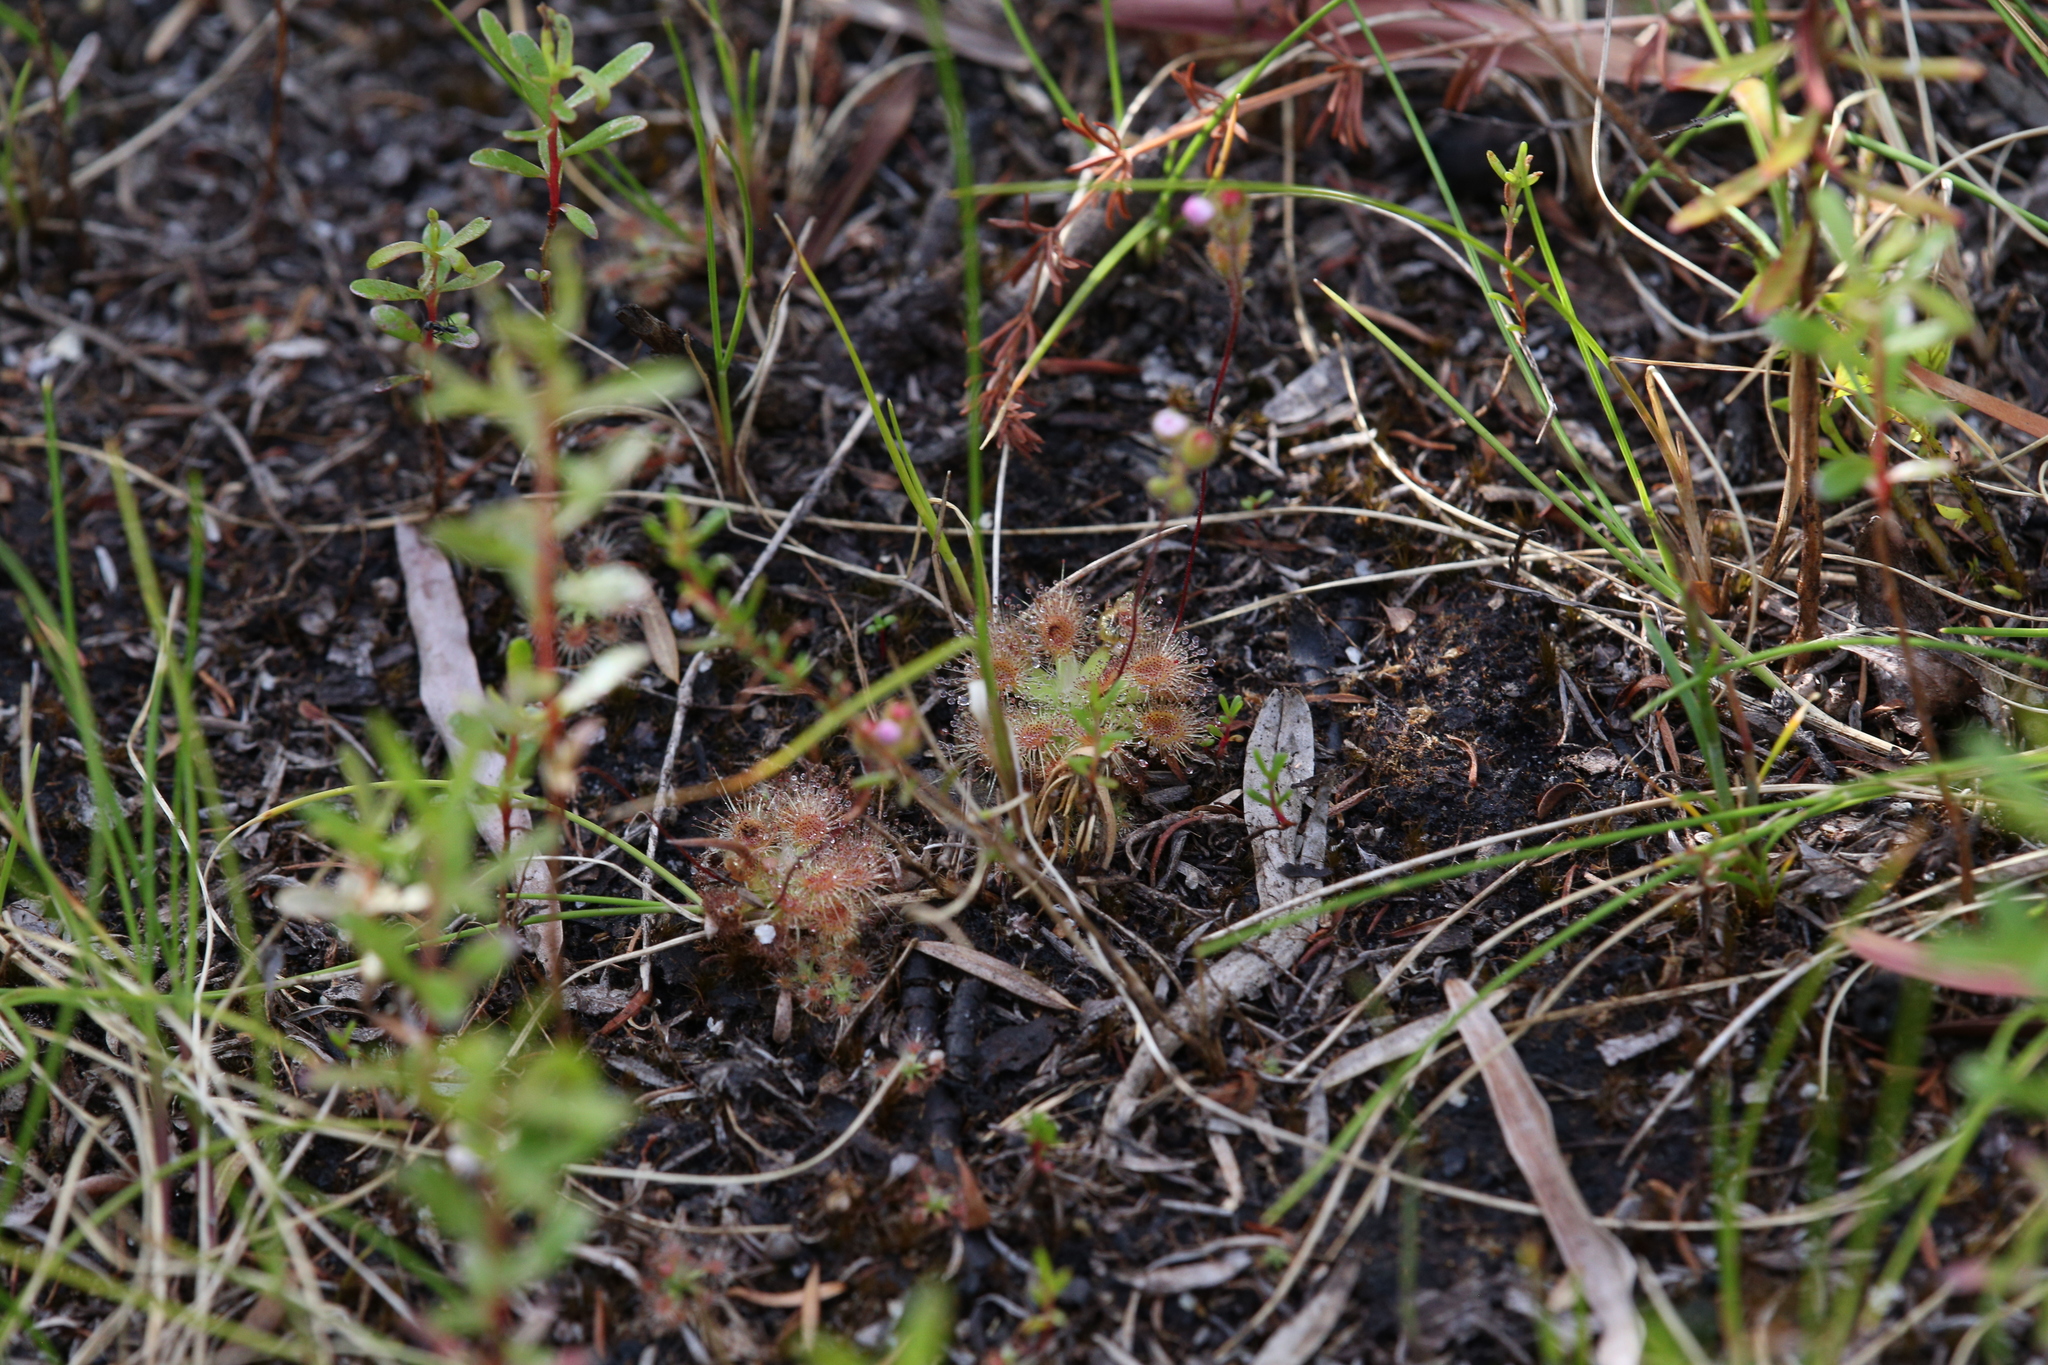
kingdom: Plantae
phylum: Tracheophyta
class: Magnoliopsida
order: Caryophyllales
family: Droseraceae
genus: Drosera
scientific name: Drosera pulchella
